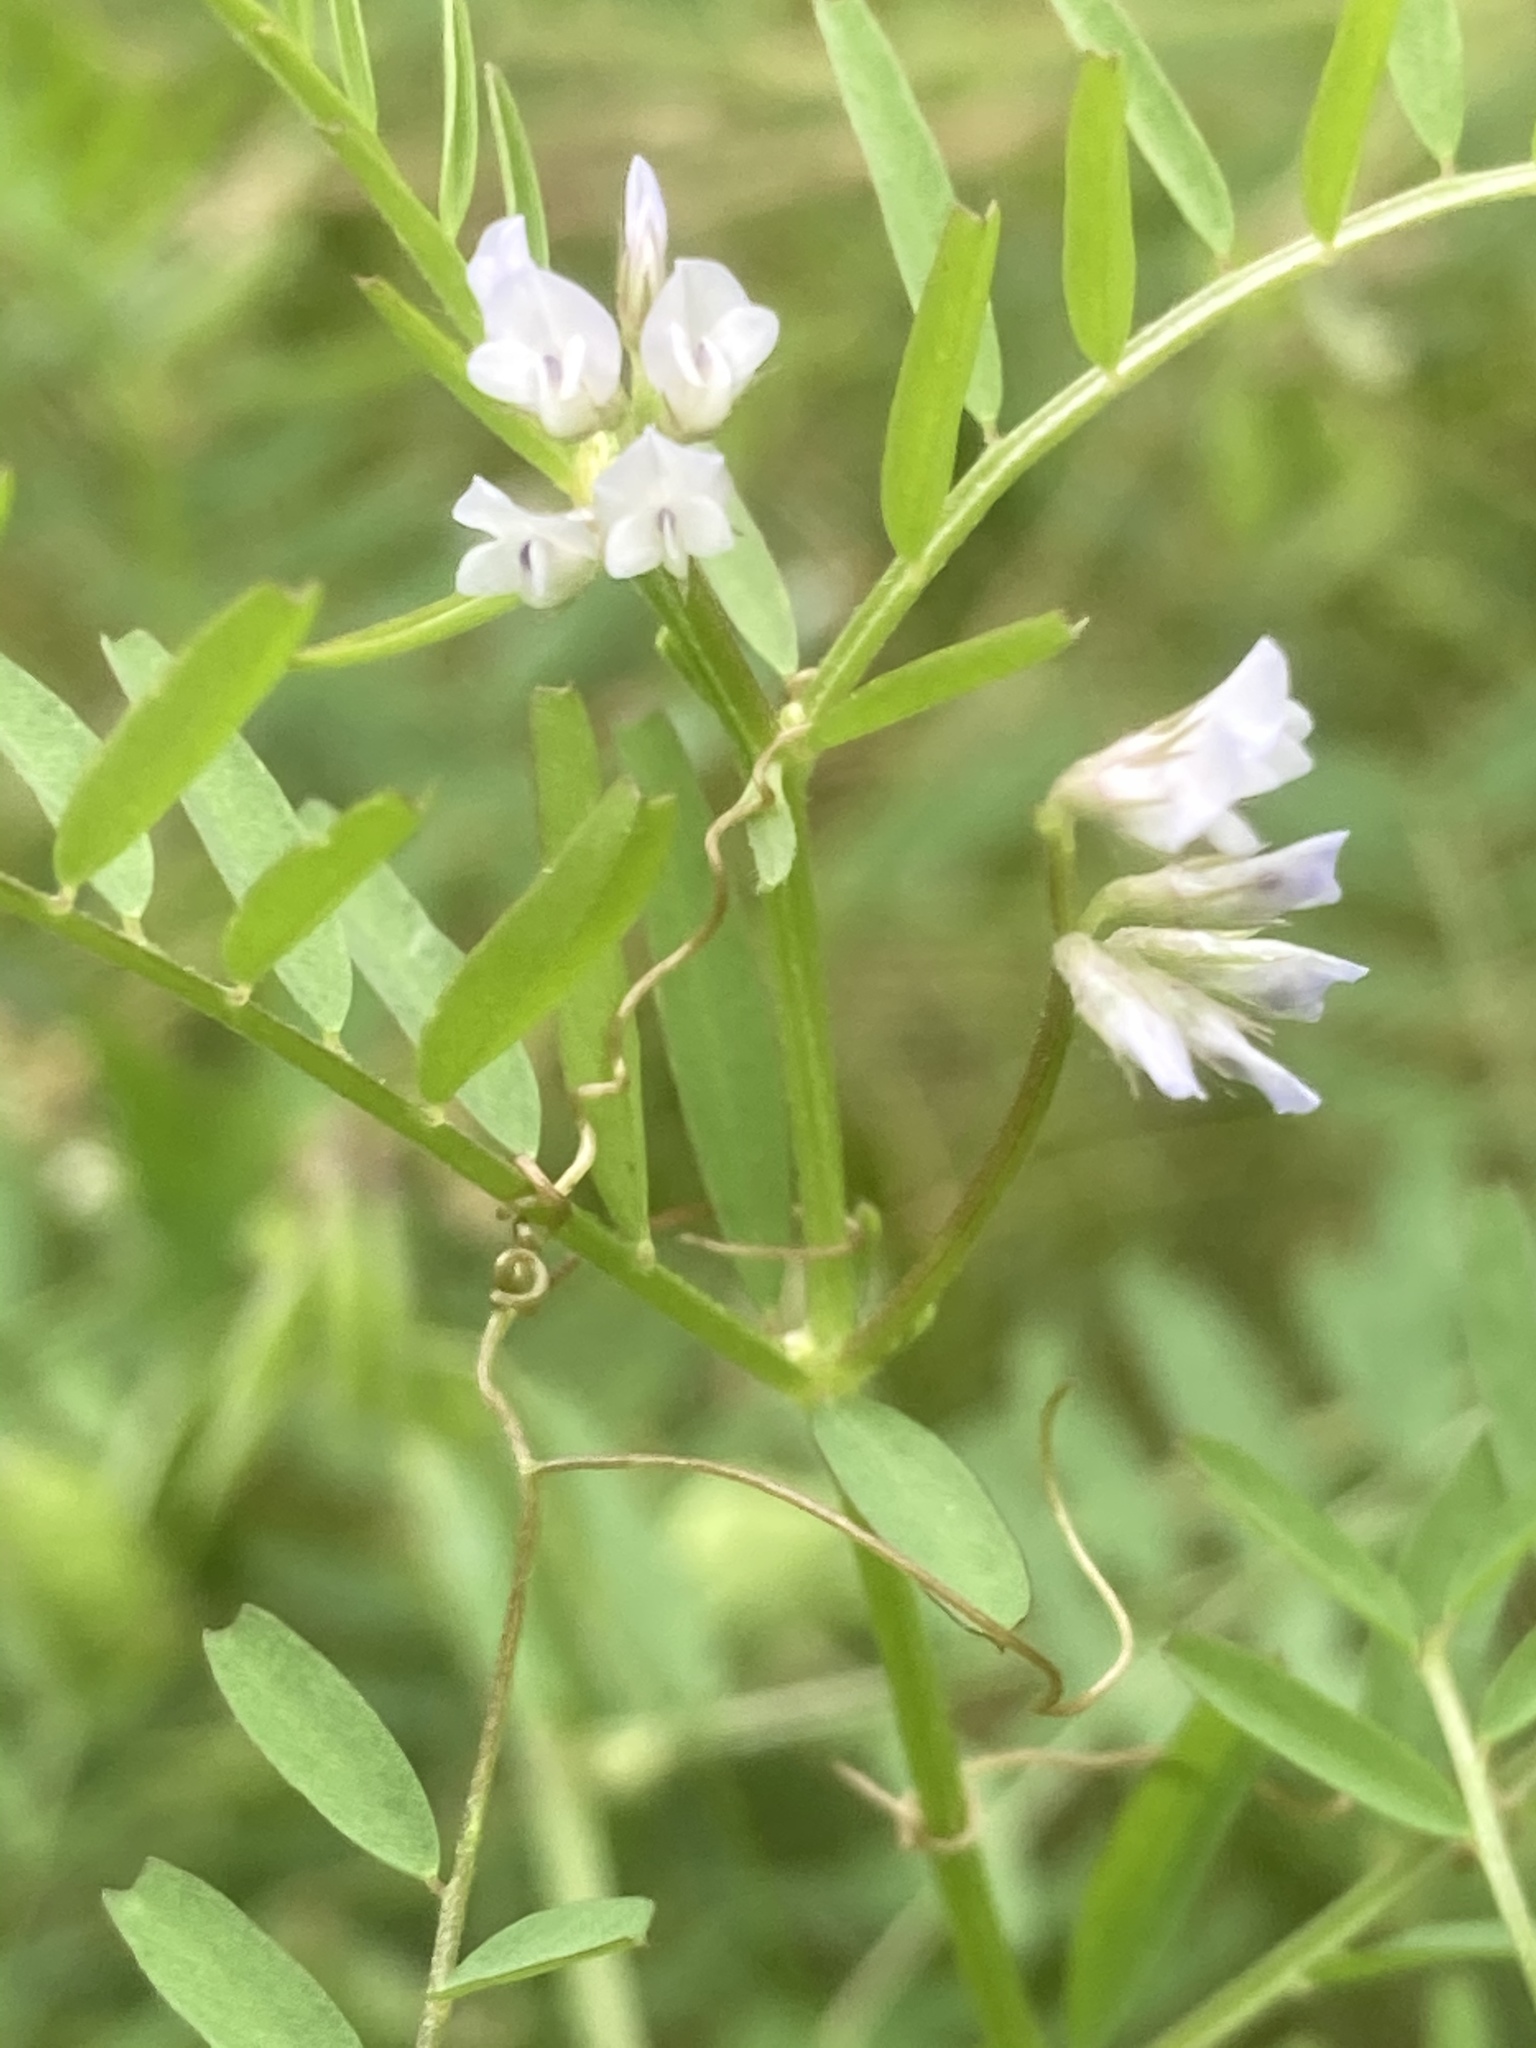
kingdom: Plantae
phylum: Tracheophyta
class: Magnoliopsida
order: Fabales
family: Fabaceae
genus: Vicia
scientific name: Vicia hirsuta
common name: Tiny vetch
